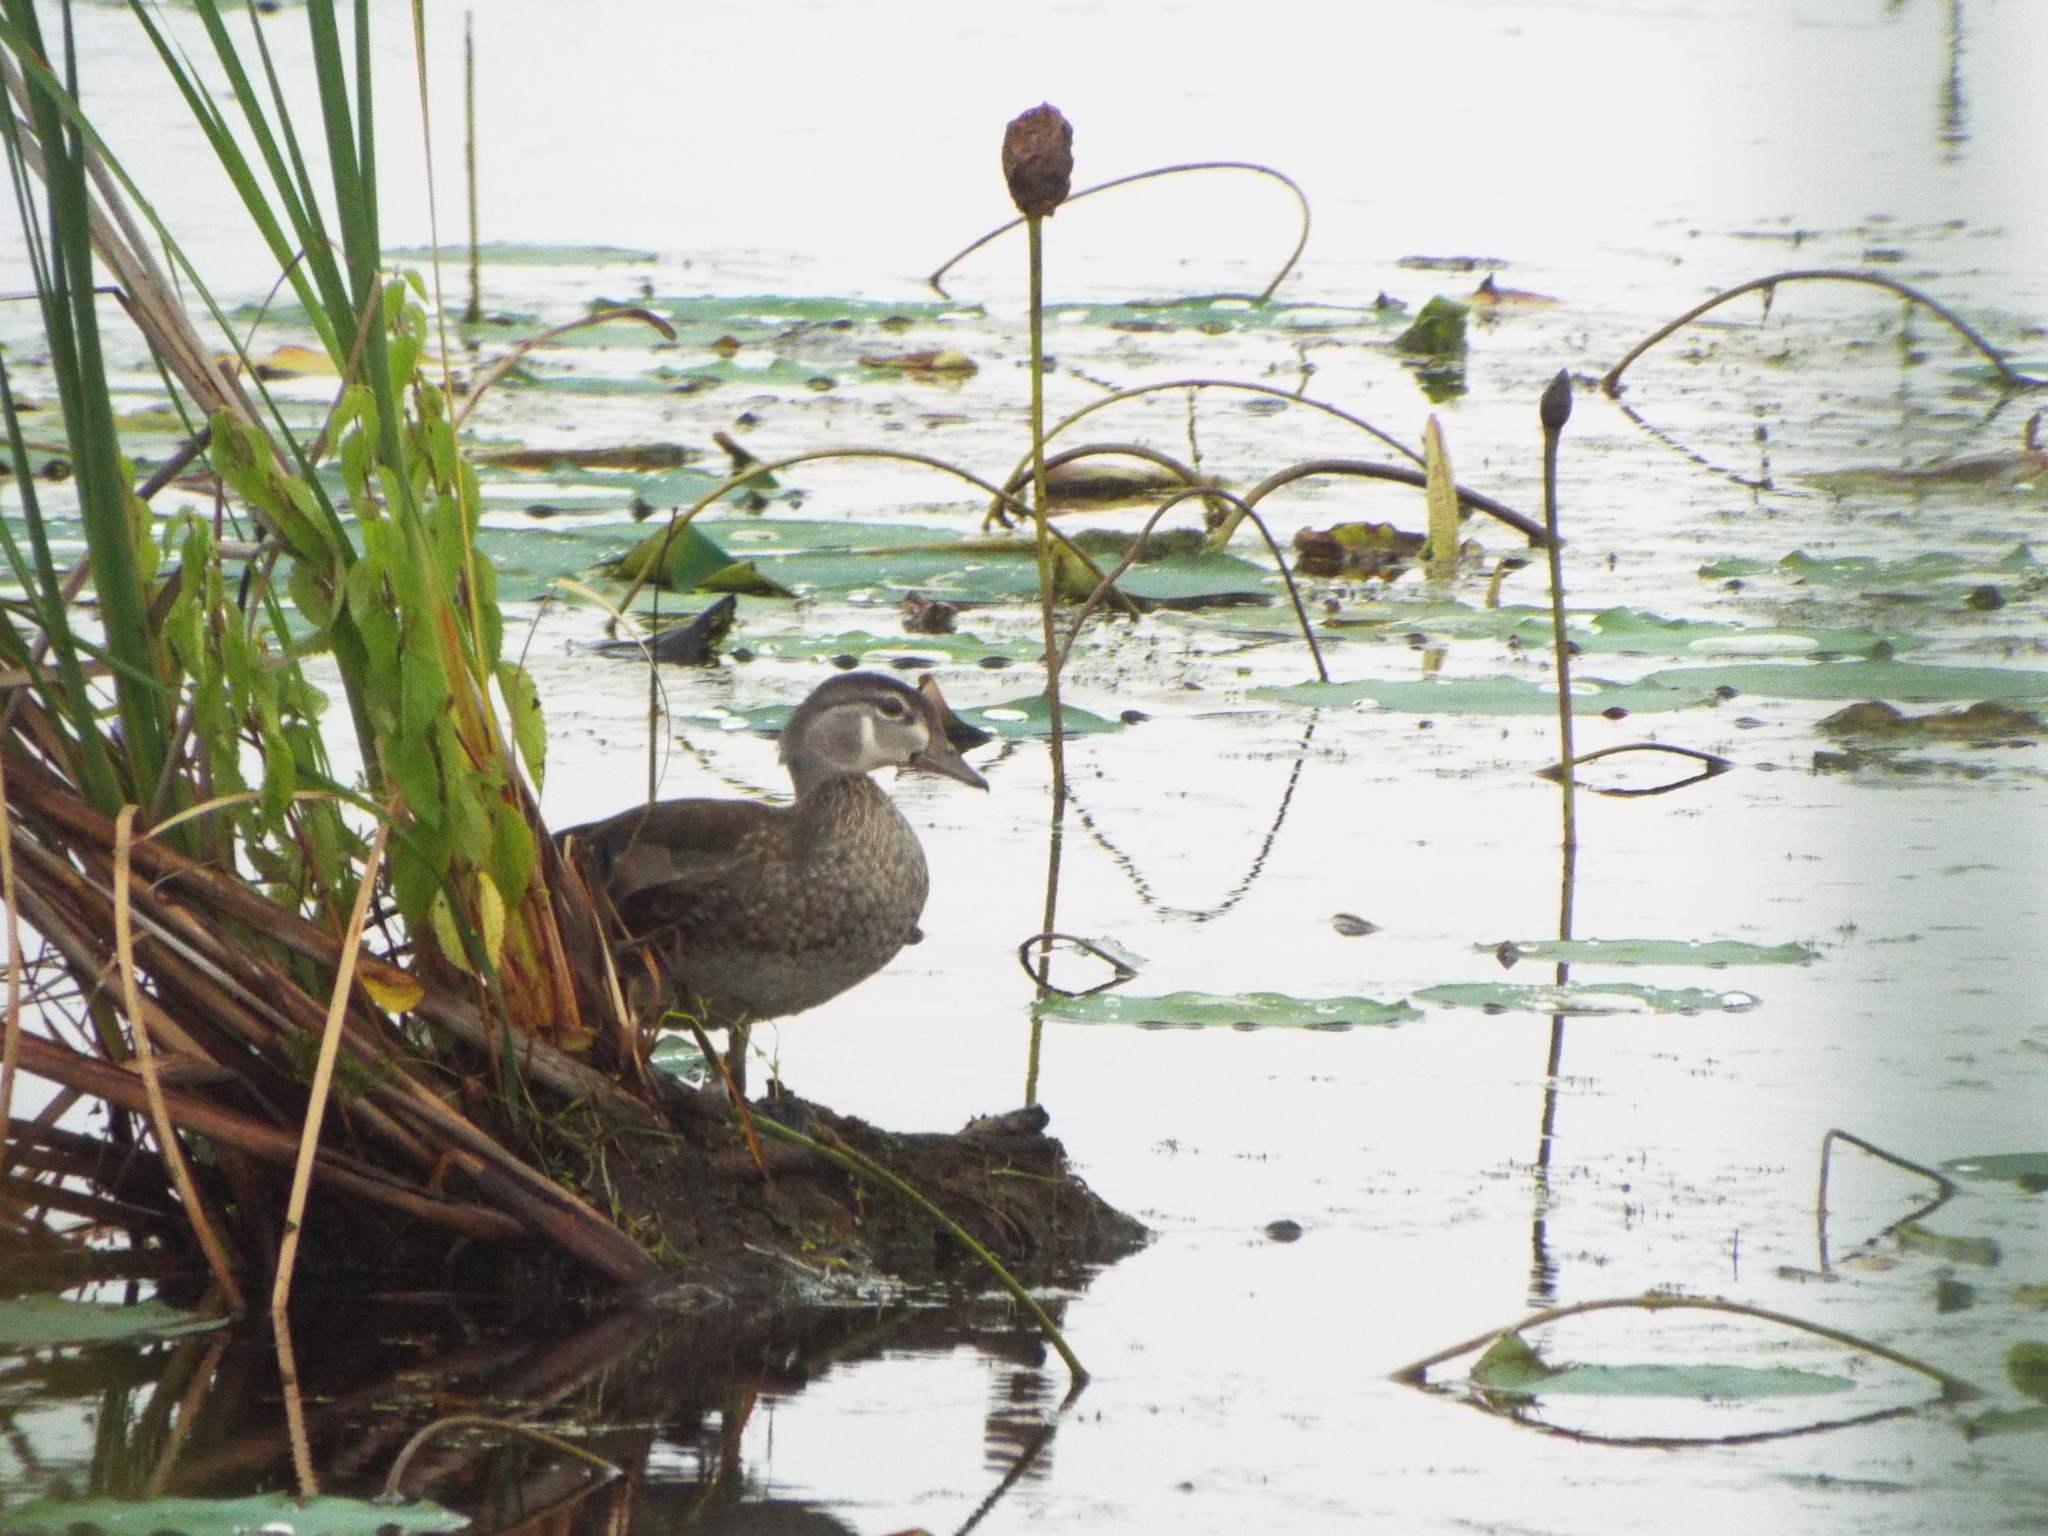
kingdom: Animalia
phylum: Chordata
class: Aves
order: Anseriformes
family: Anatidae
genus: Aix
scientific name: Aix sponsa
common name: Wood duck
